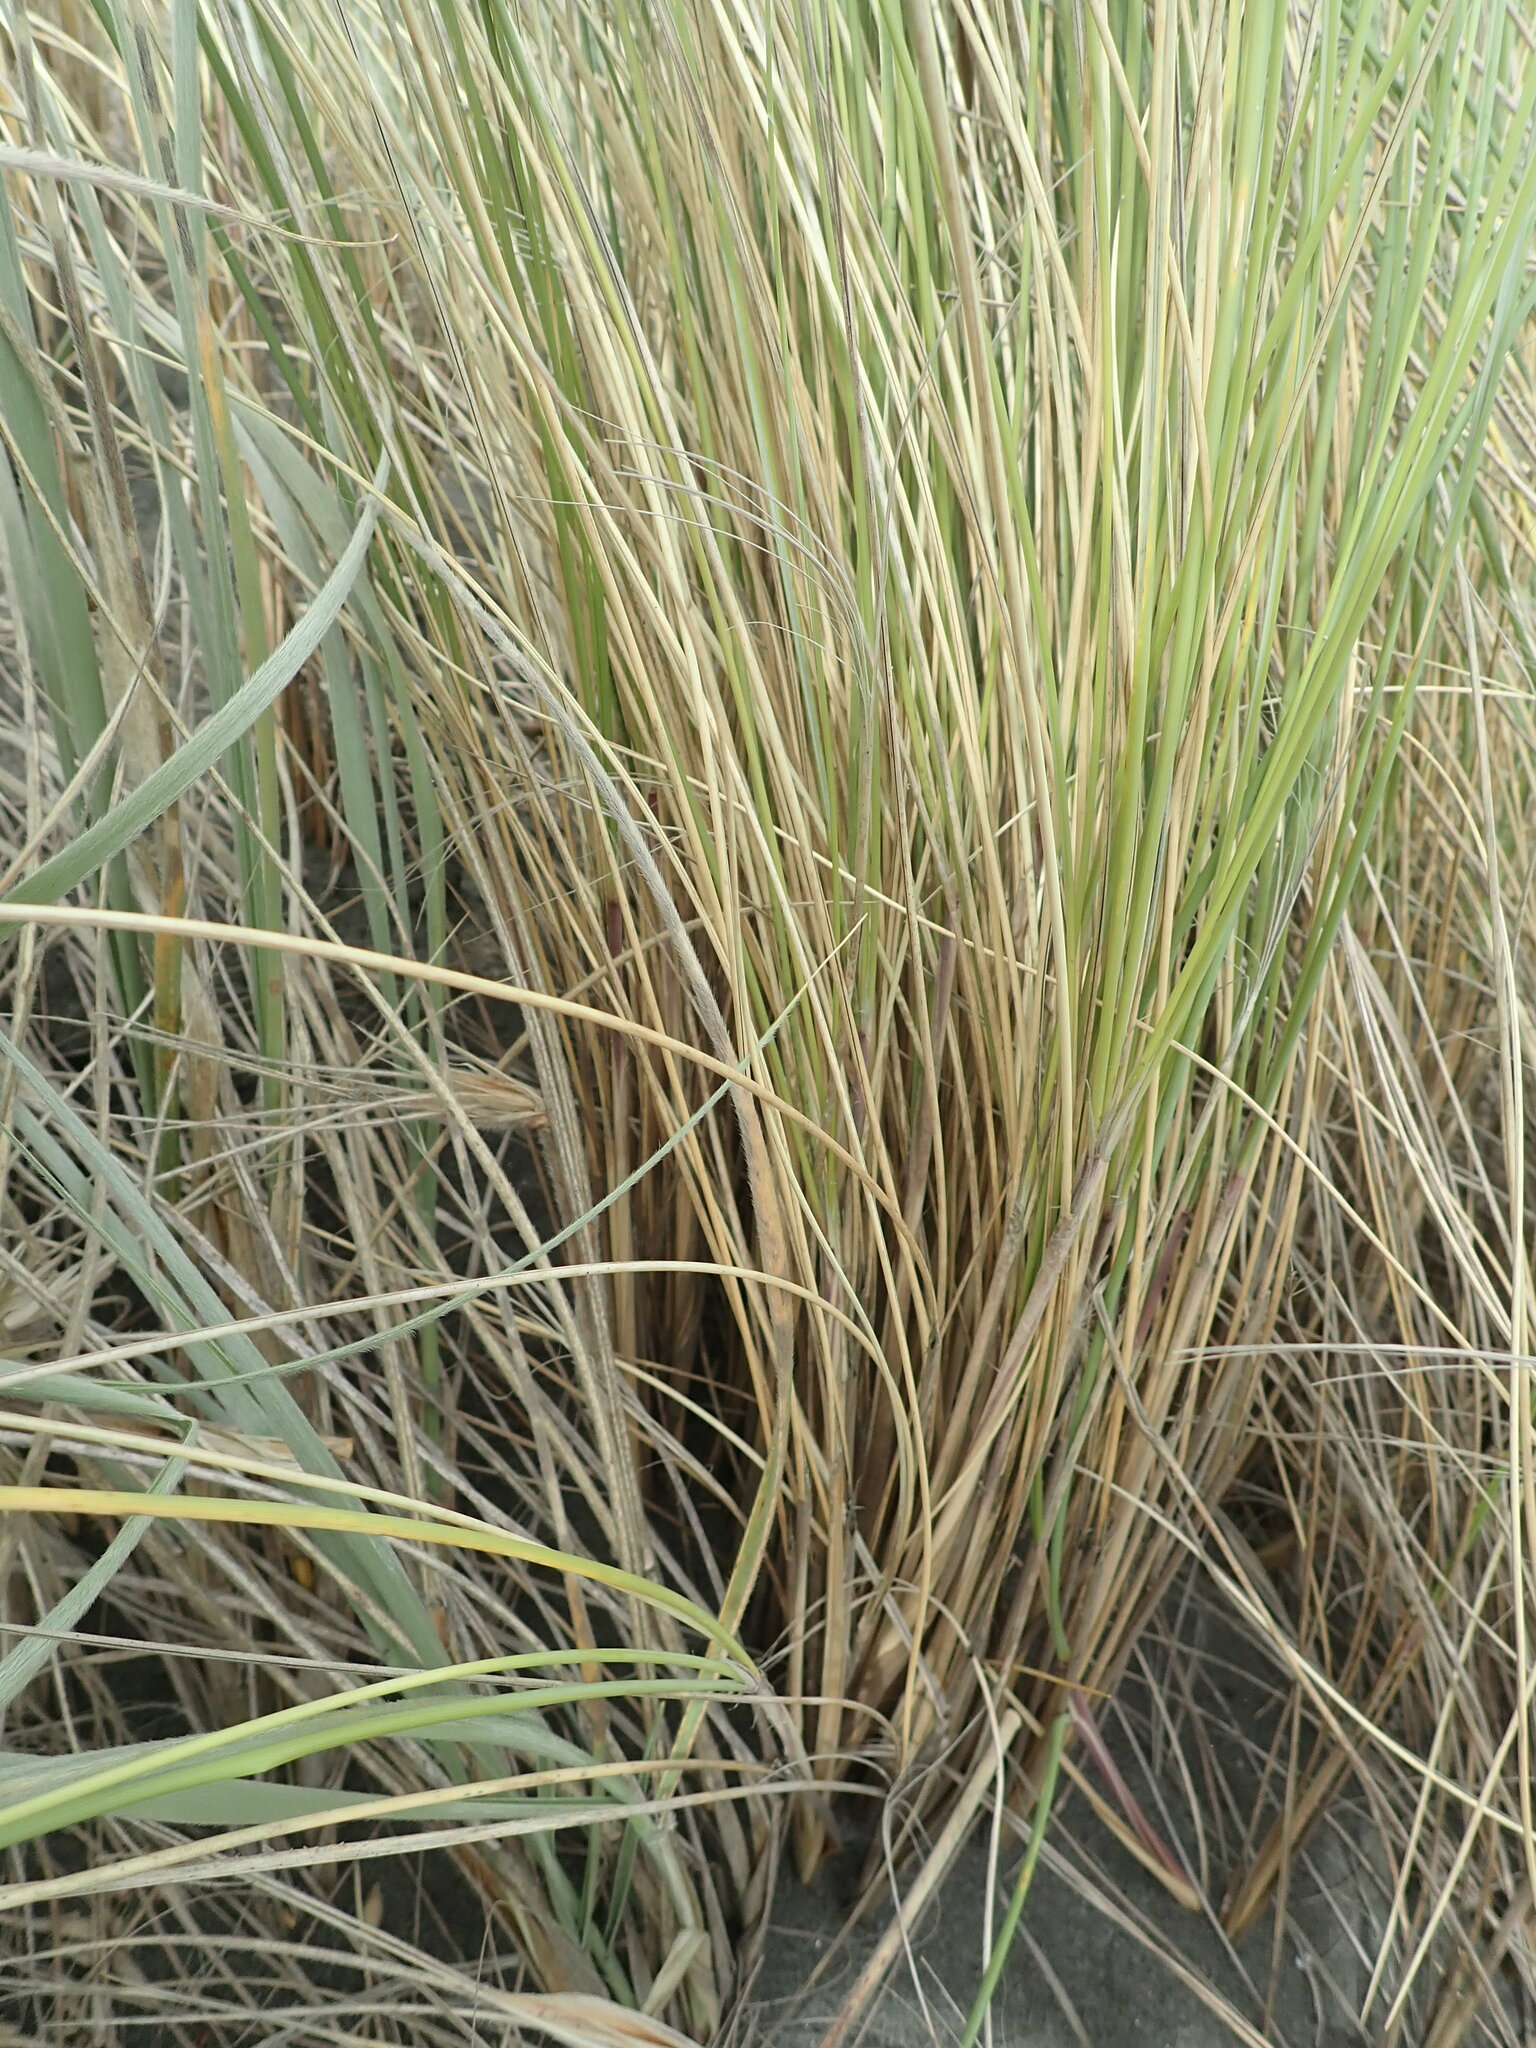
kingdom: Plantae
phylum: Tracheophyta
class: Liliopsida
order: Poales
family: Poaceae
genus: Calamagrostis
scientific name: Calamagrostis arenaria
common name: European beachgrass
